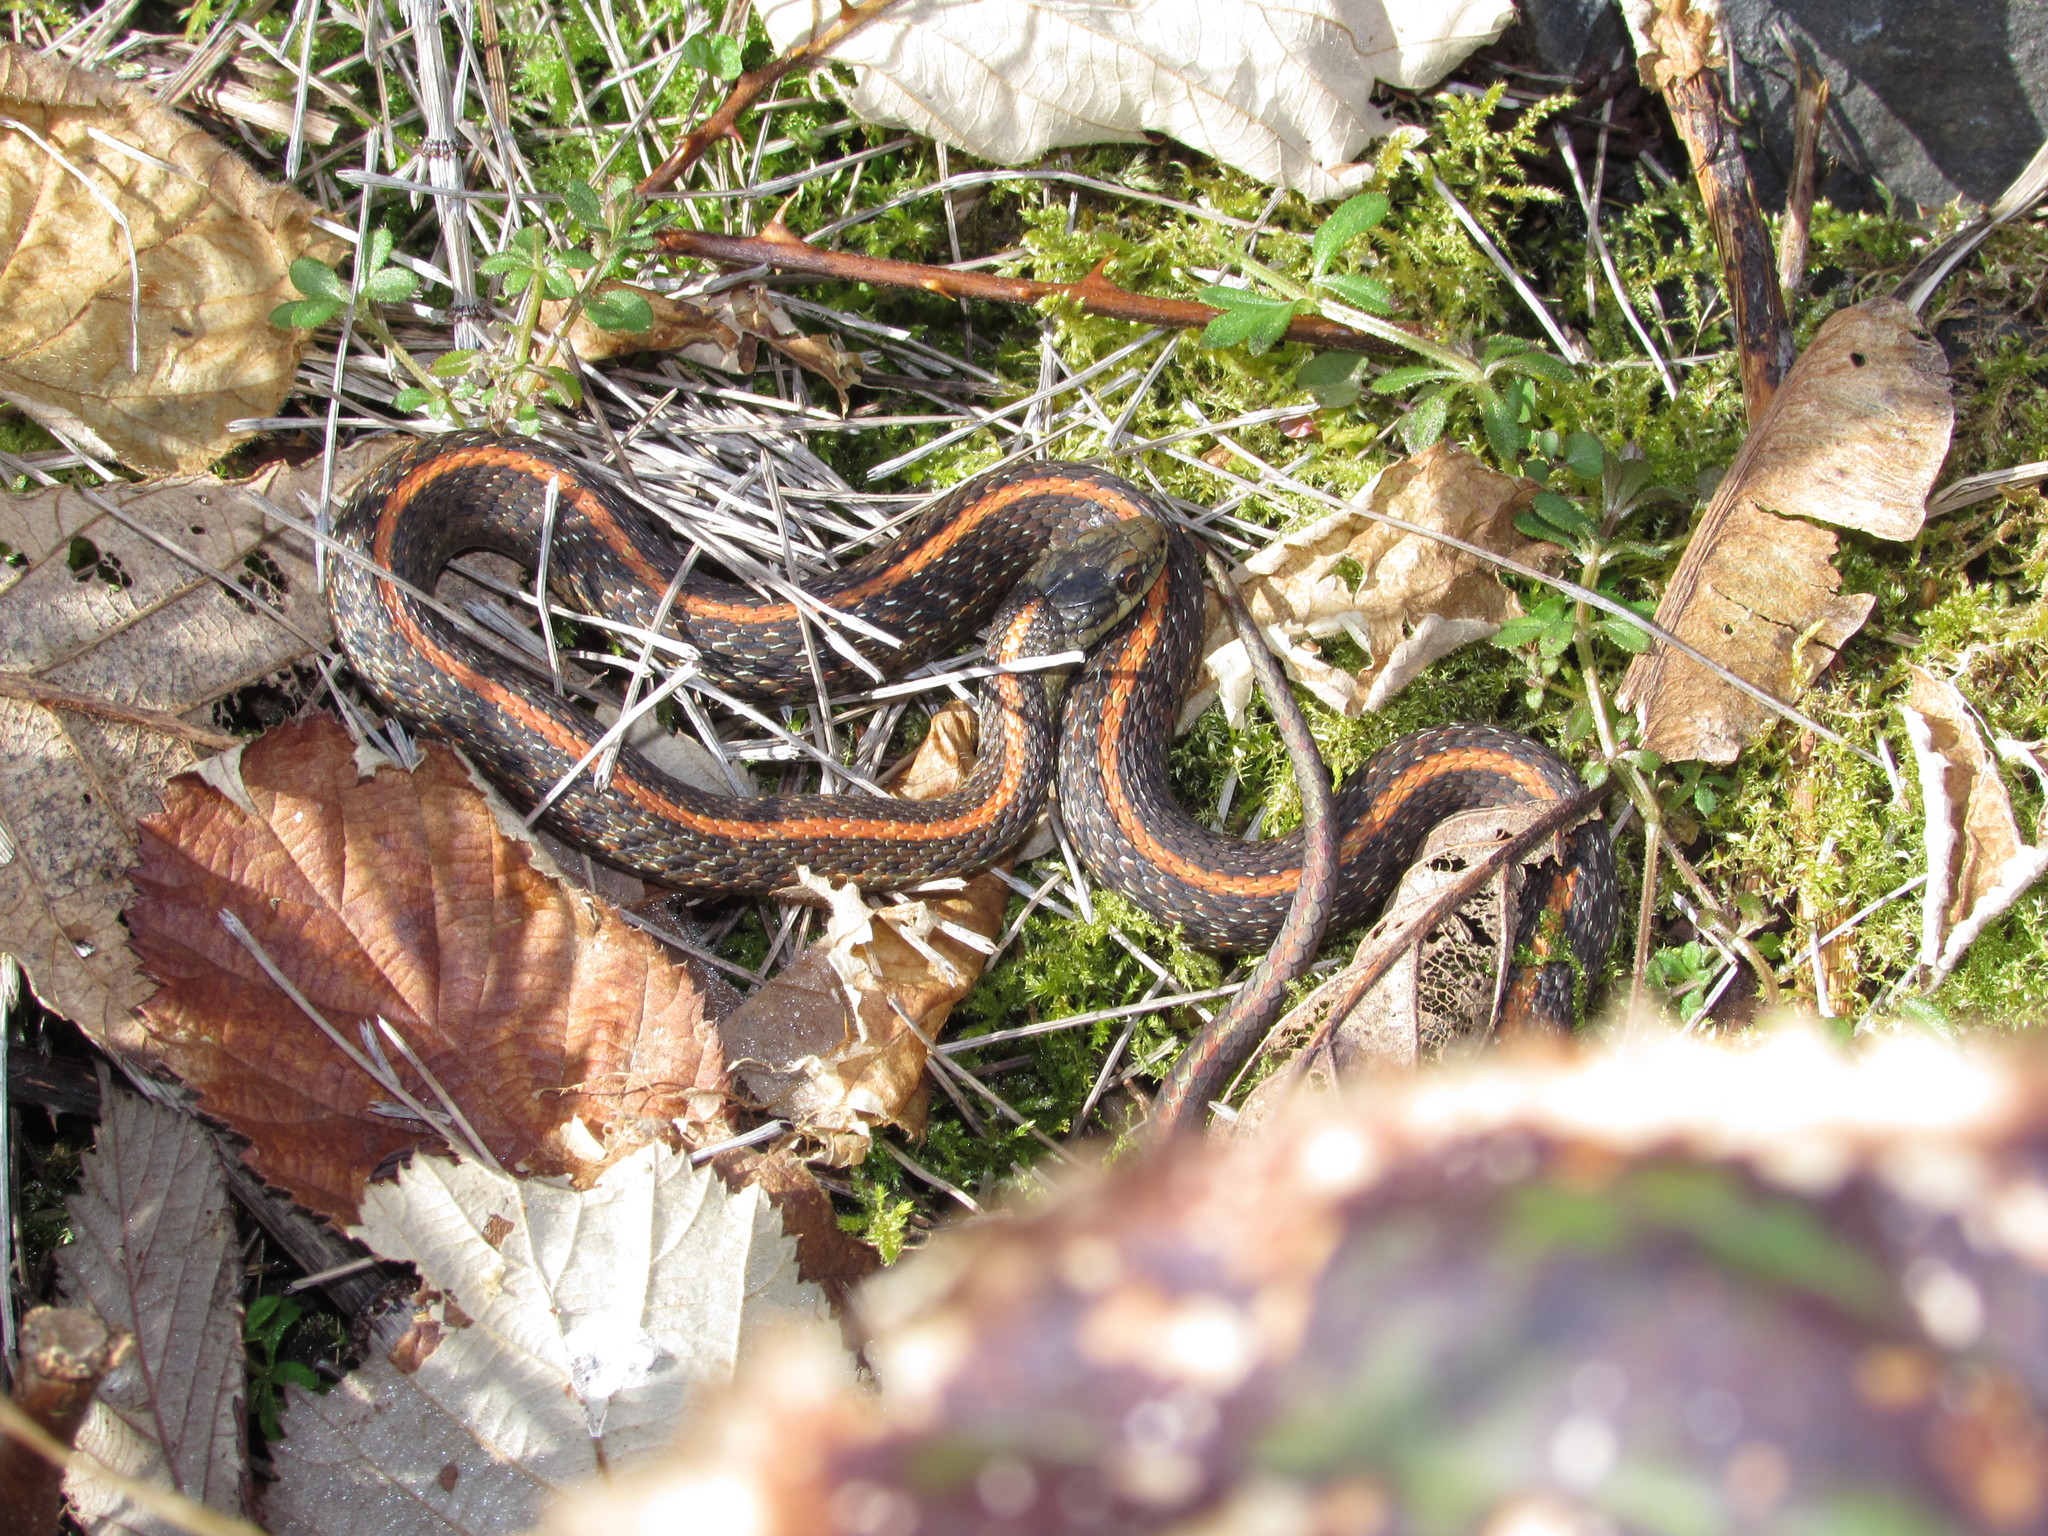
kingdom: Animalia
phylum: Chordata
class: Squamata
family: Colubridae
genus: Thamnophis
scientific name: Thamnophis ordinoides
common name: Northwestern garter snake
